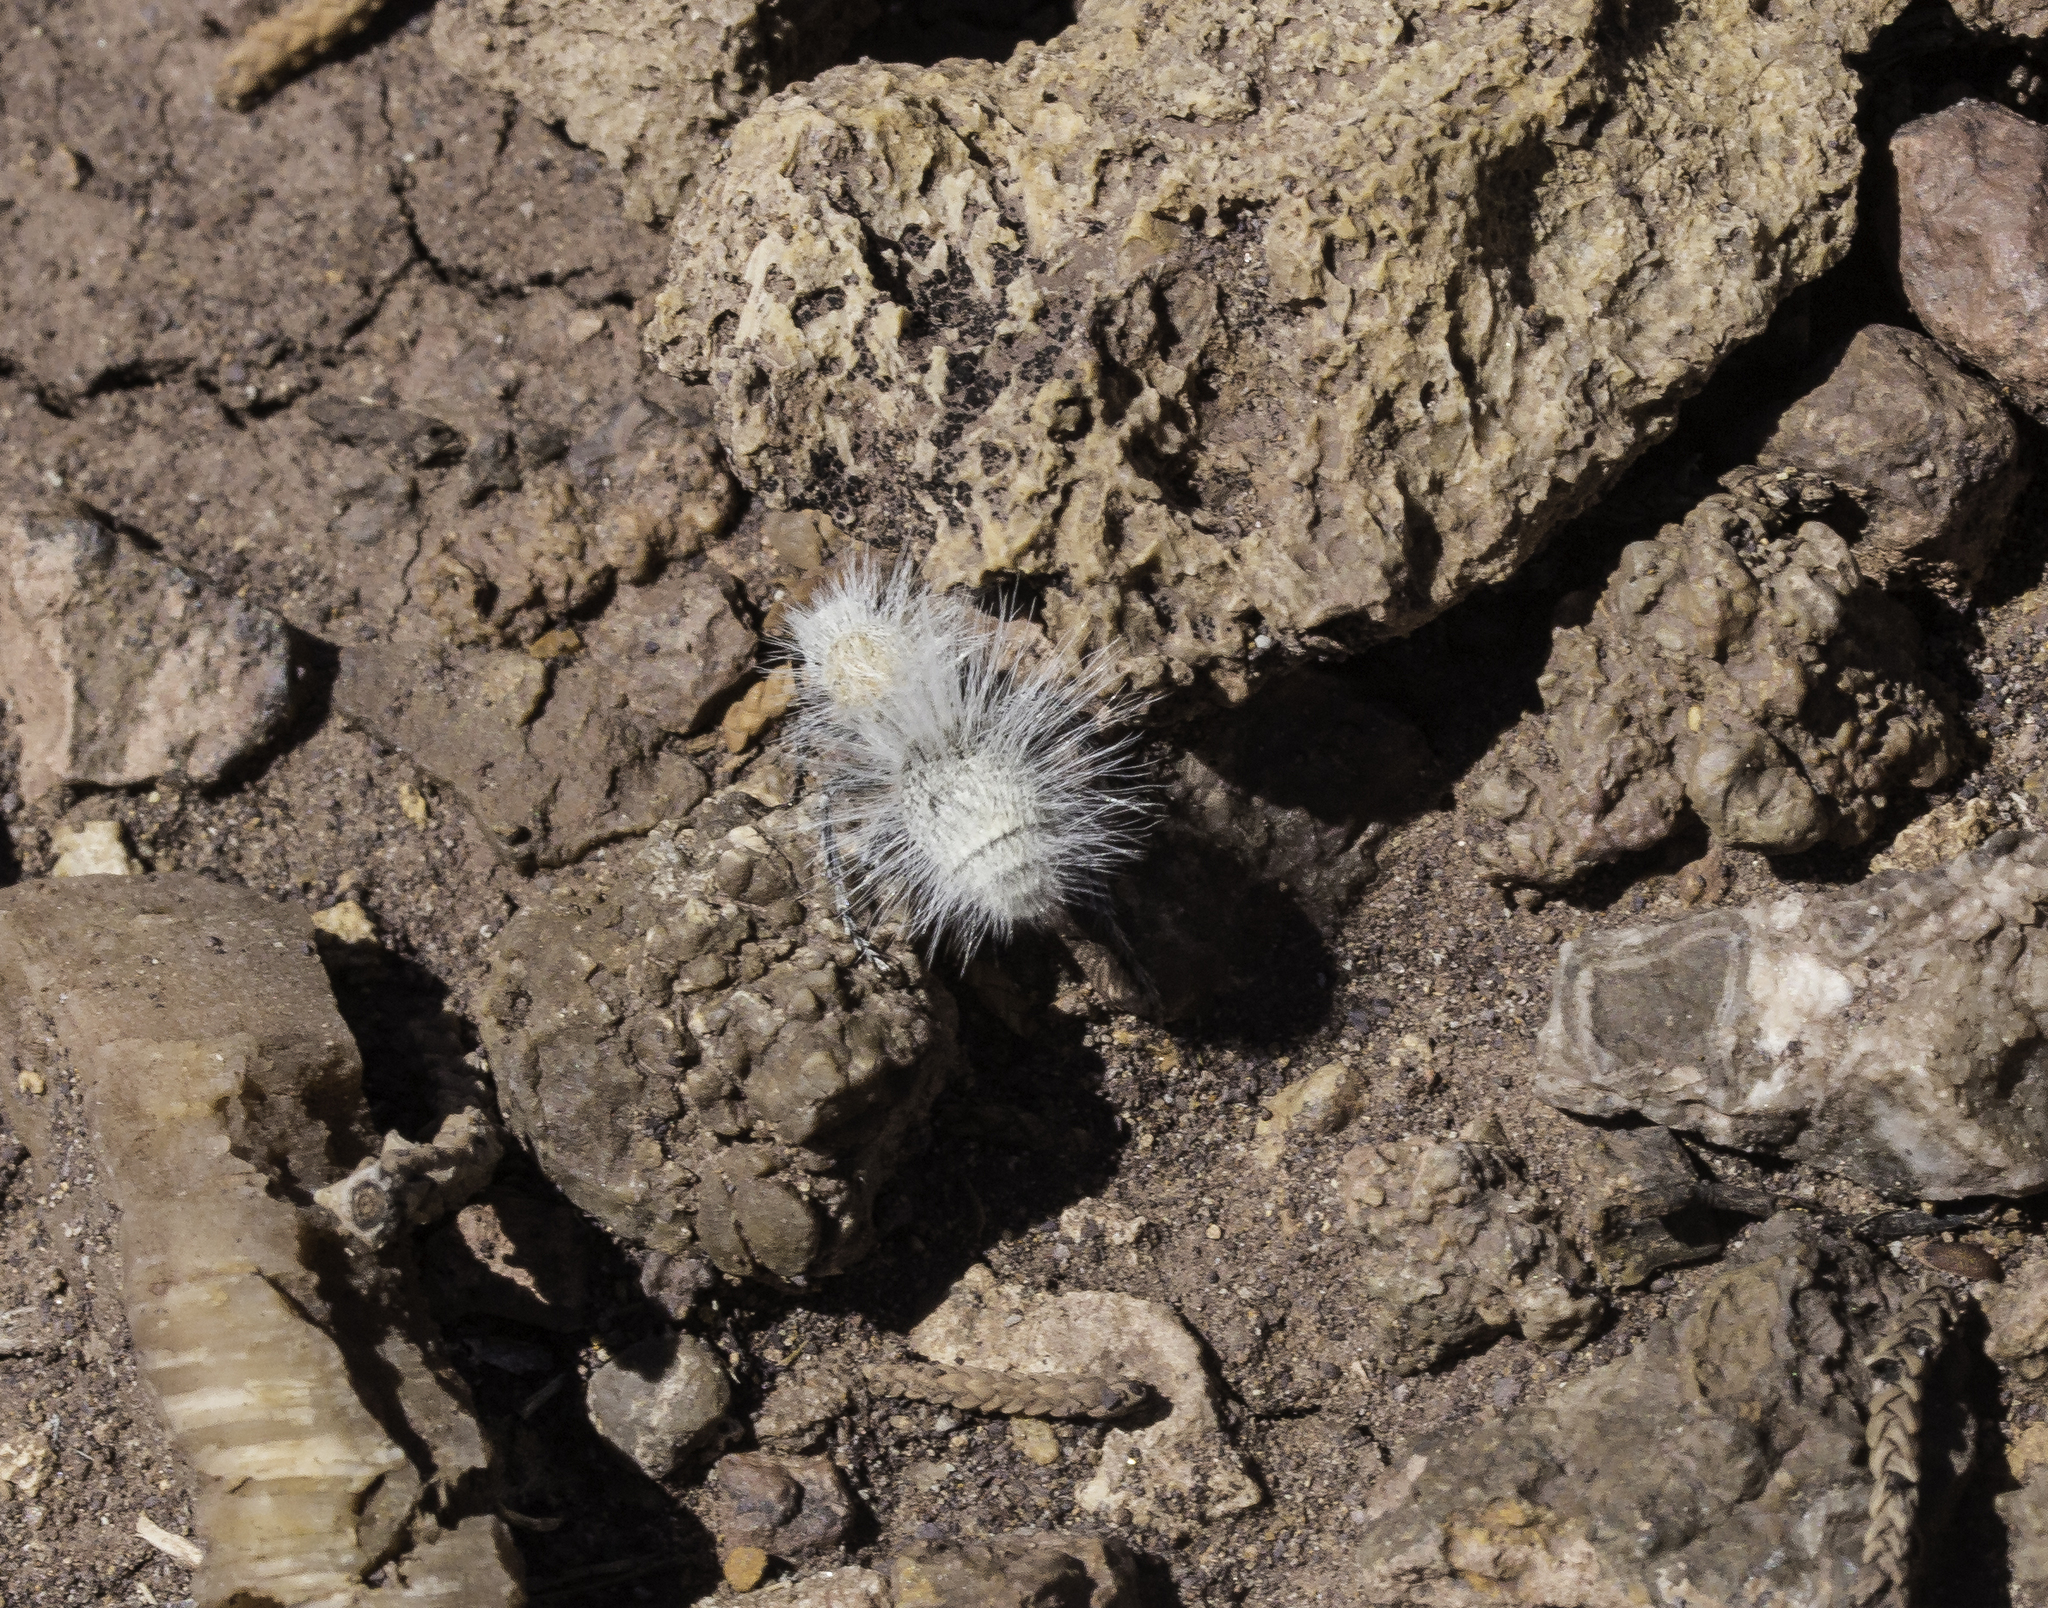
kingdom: Animalia
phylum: Arthropoda
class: Insecta
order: Hymenoptera
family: Mutillidae
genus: Dasymutilla
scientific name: Dasymutilla pseudopappus
